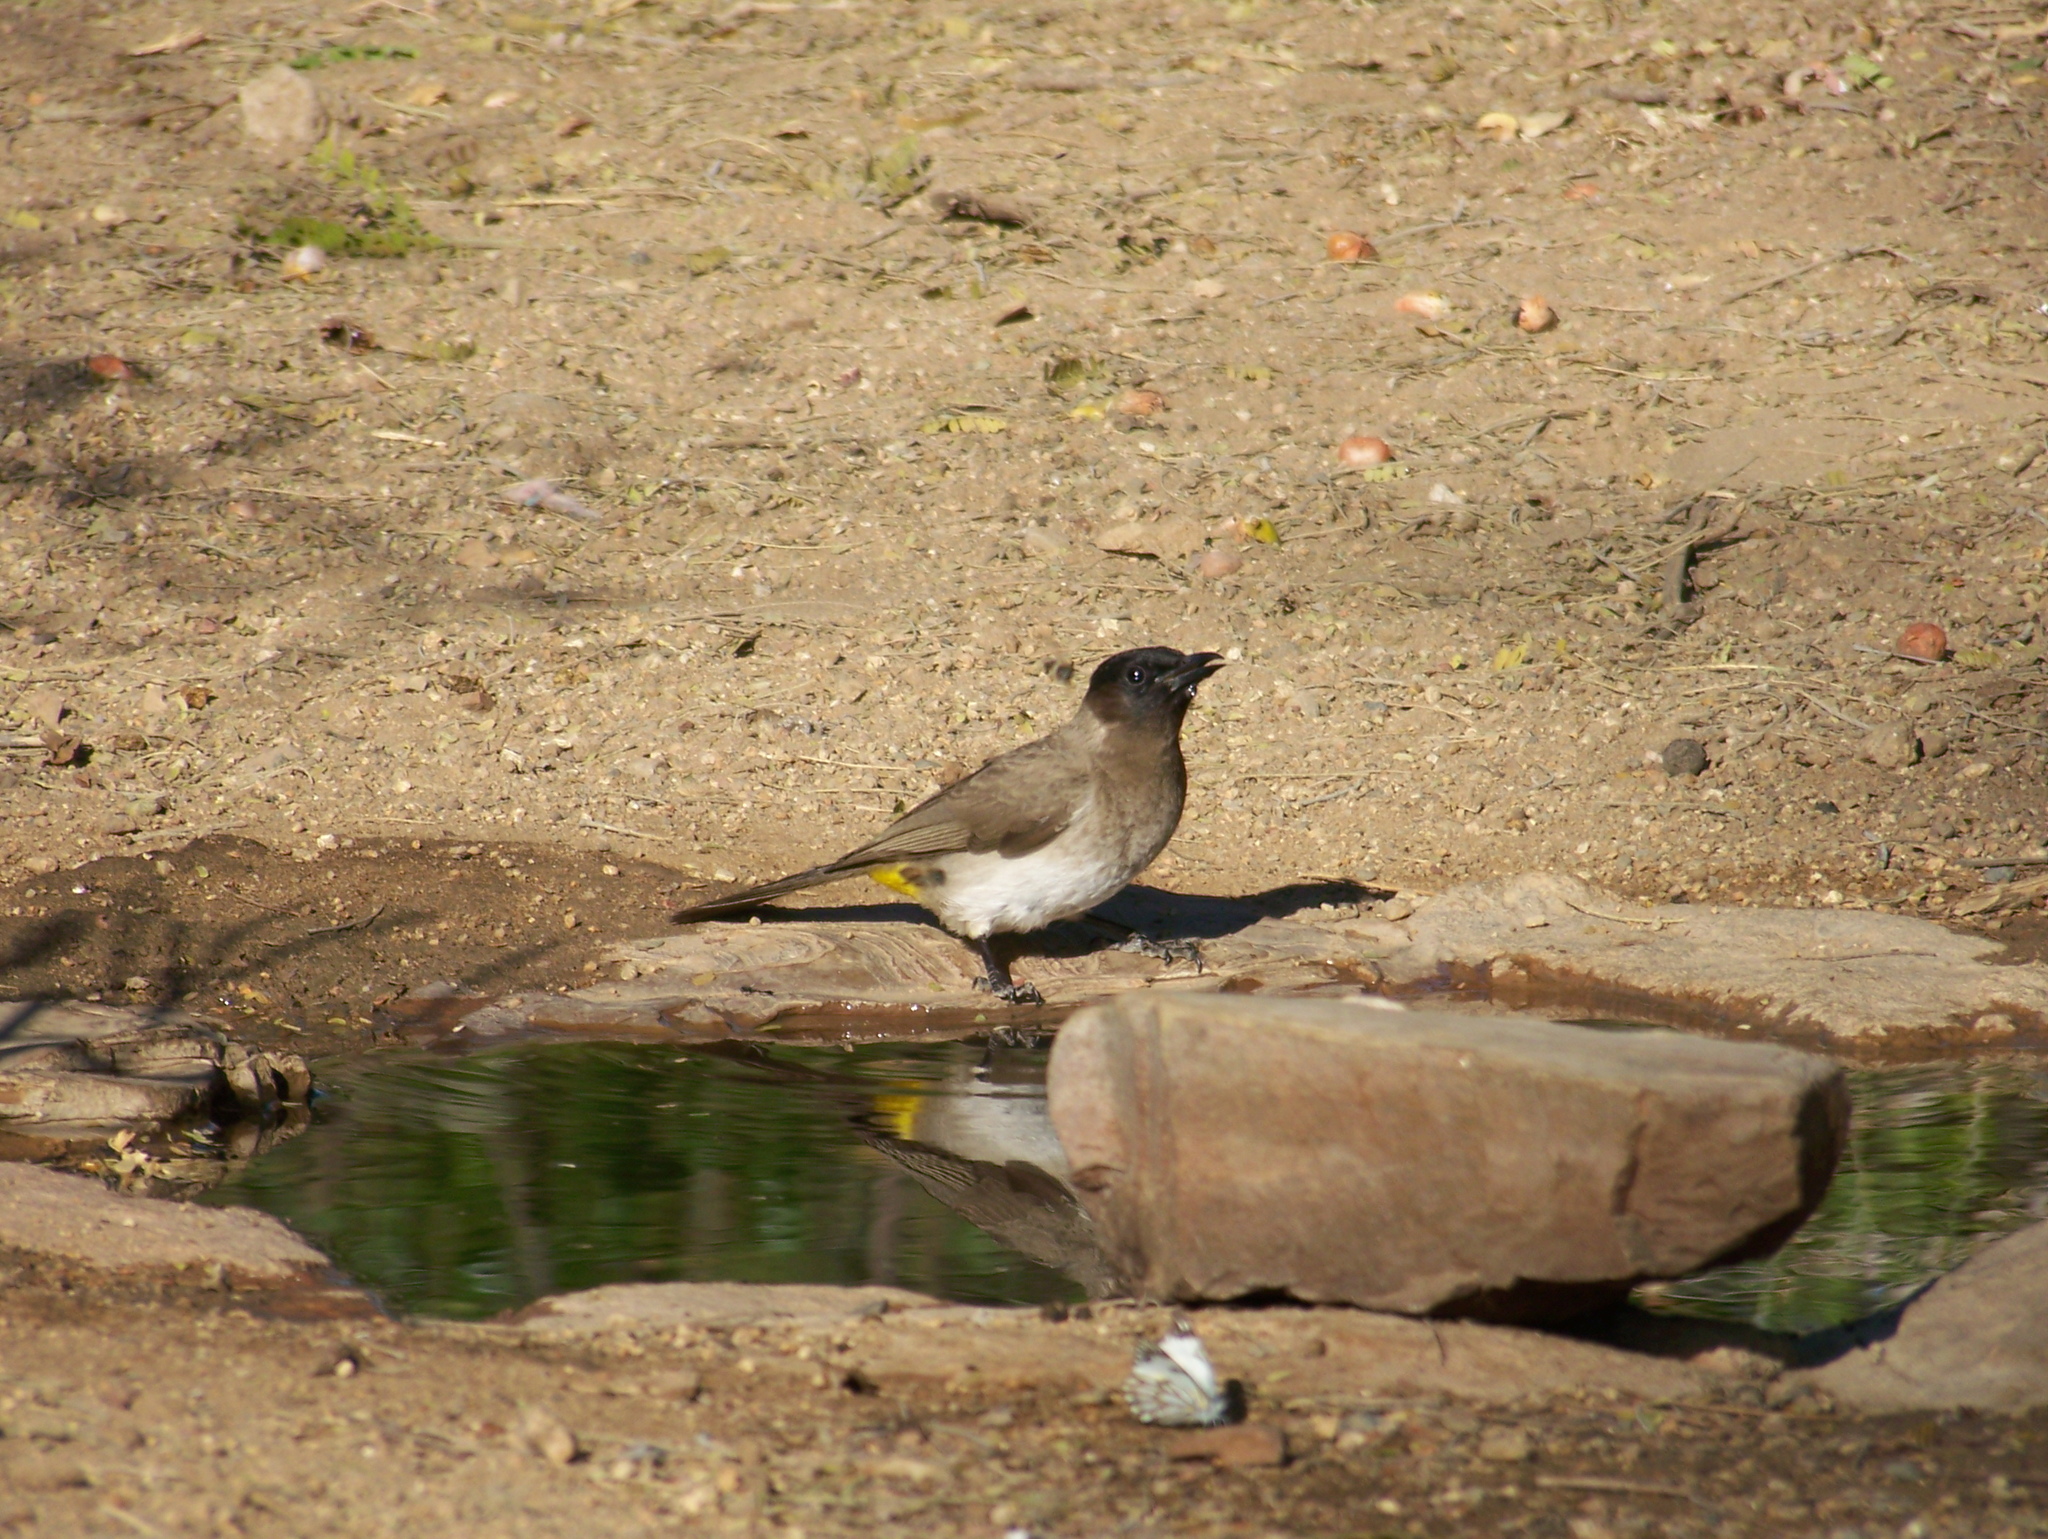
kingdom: Animalia
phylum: Chordata
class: Aves
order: Passeriformes
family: Pycnonotidae
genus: Pycnonotus
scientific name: Pycnonotus barbatus
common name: Common bulbul
